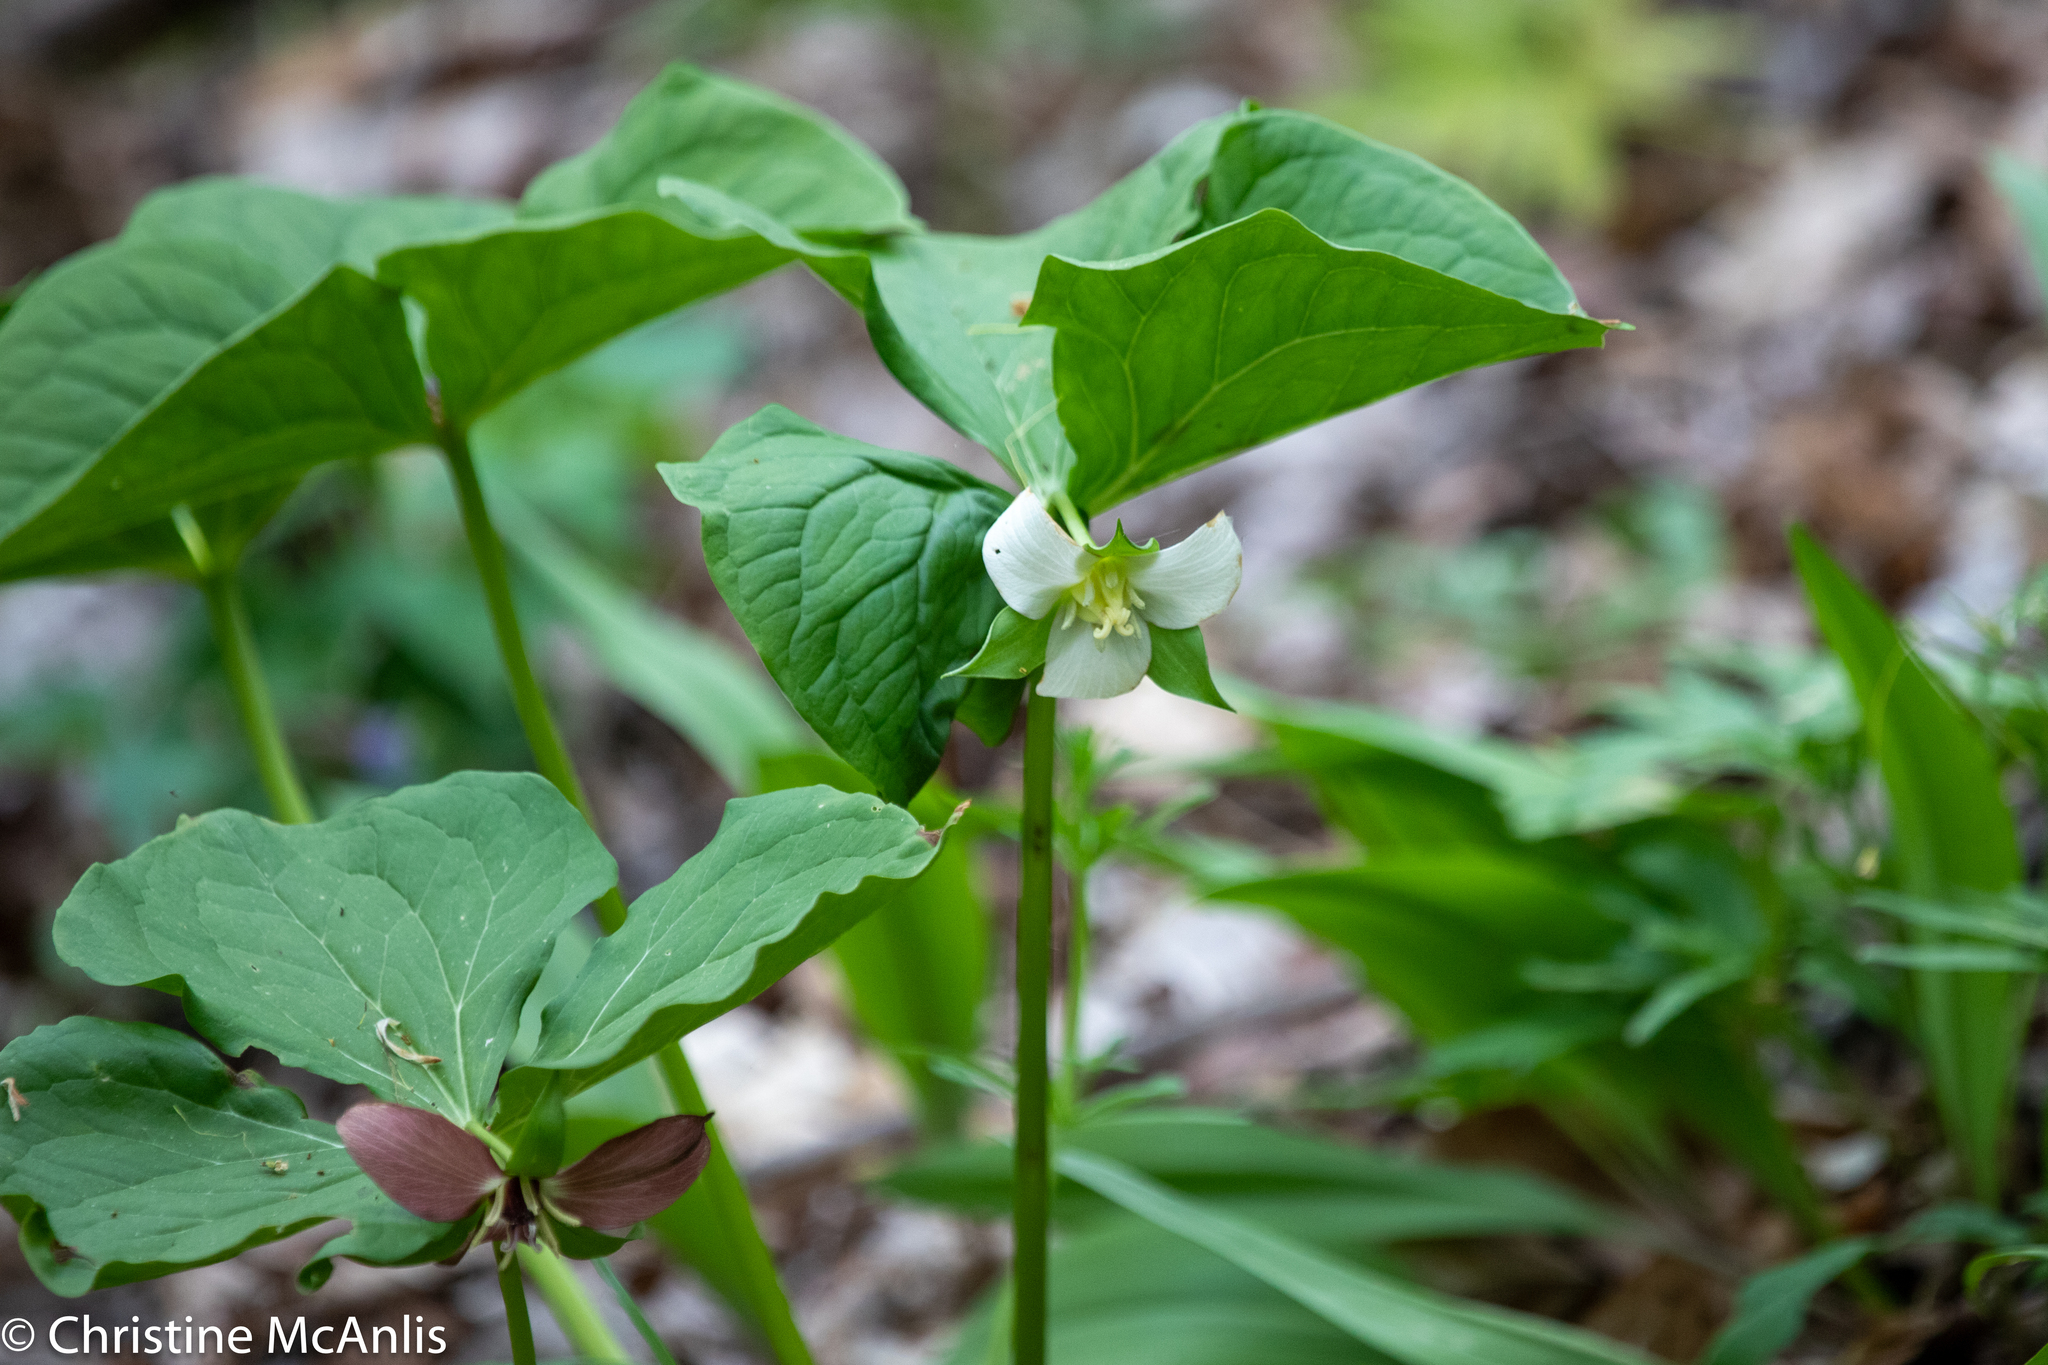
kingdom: Plantae
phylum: Tracheophyta
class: Liliopsida
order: Liliales
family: Melanthiaceae
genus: Trillium
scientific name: Trillium flexipes
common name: Drooping trillium
